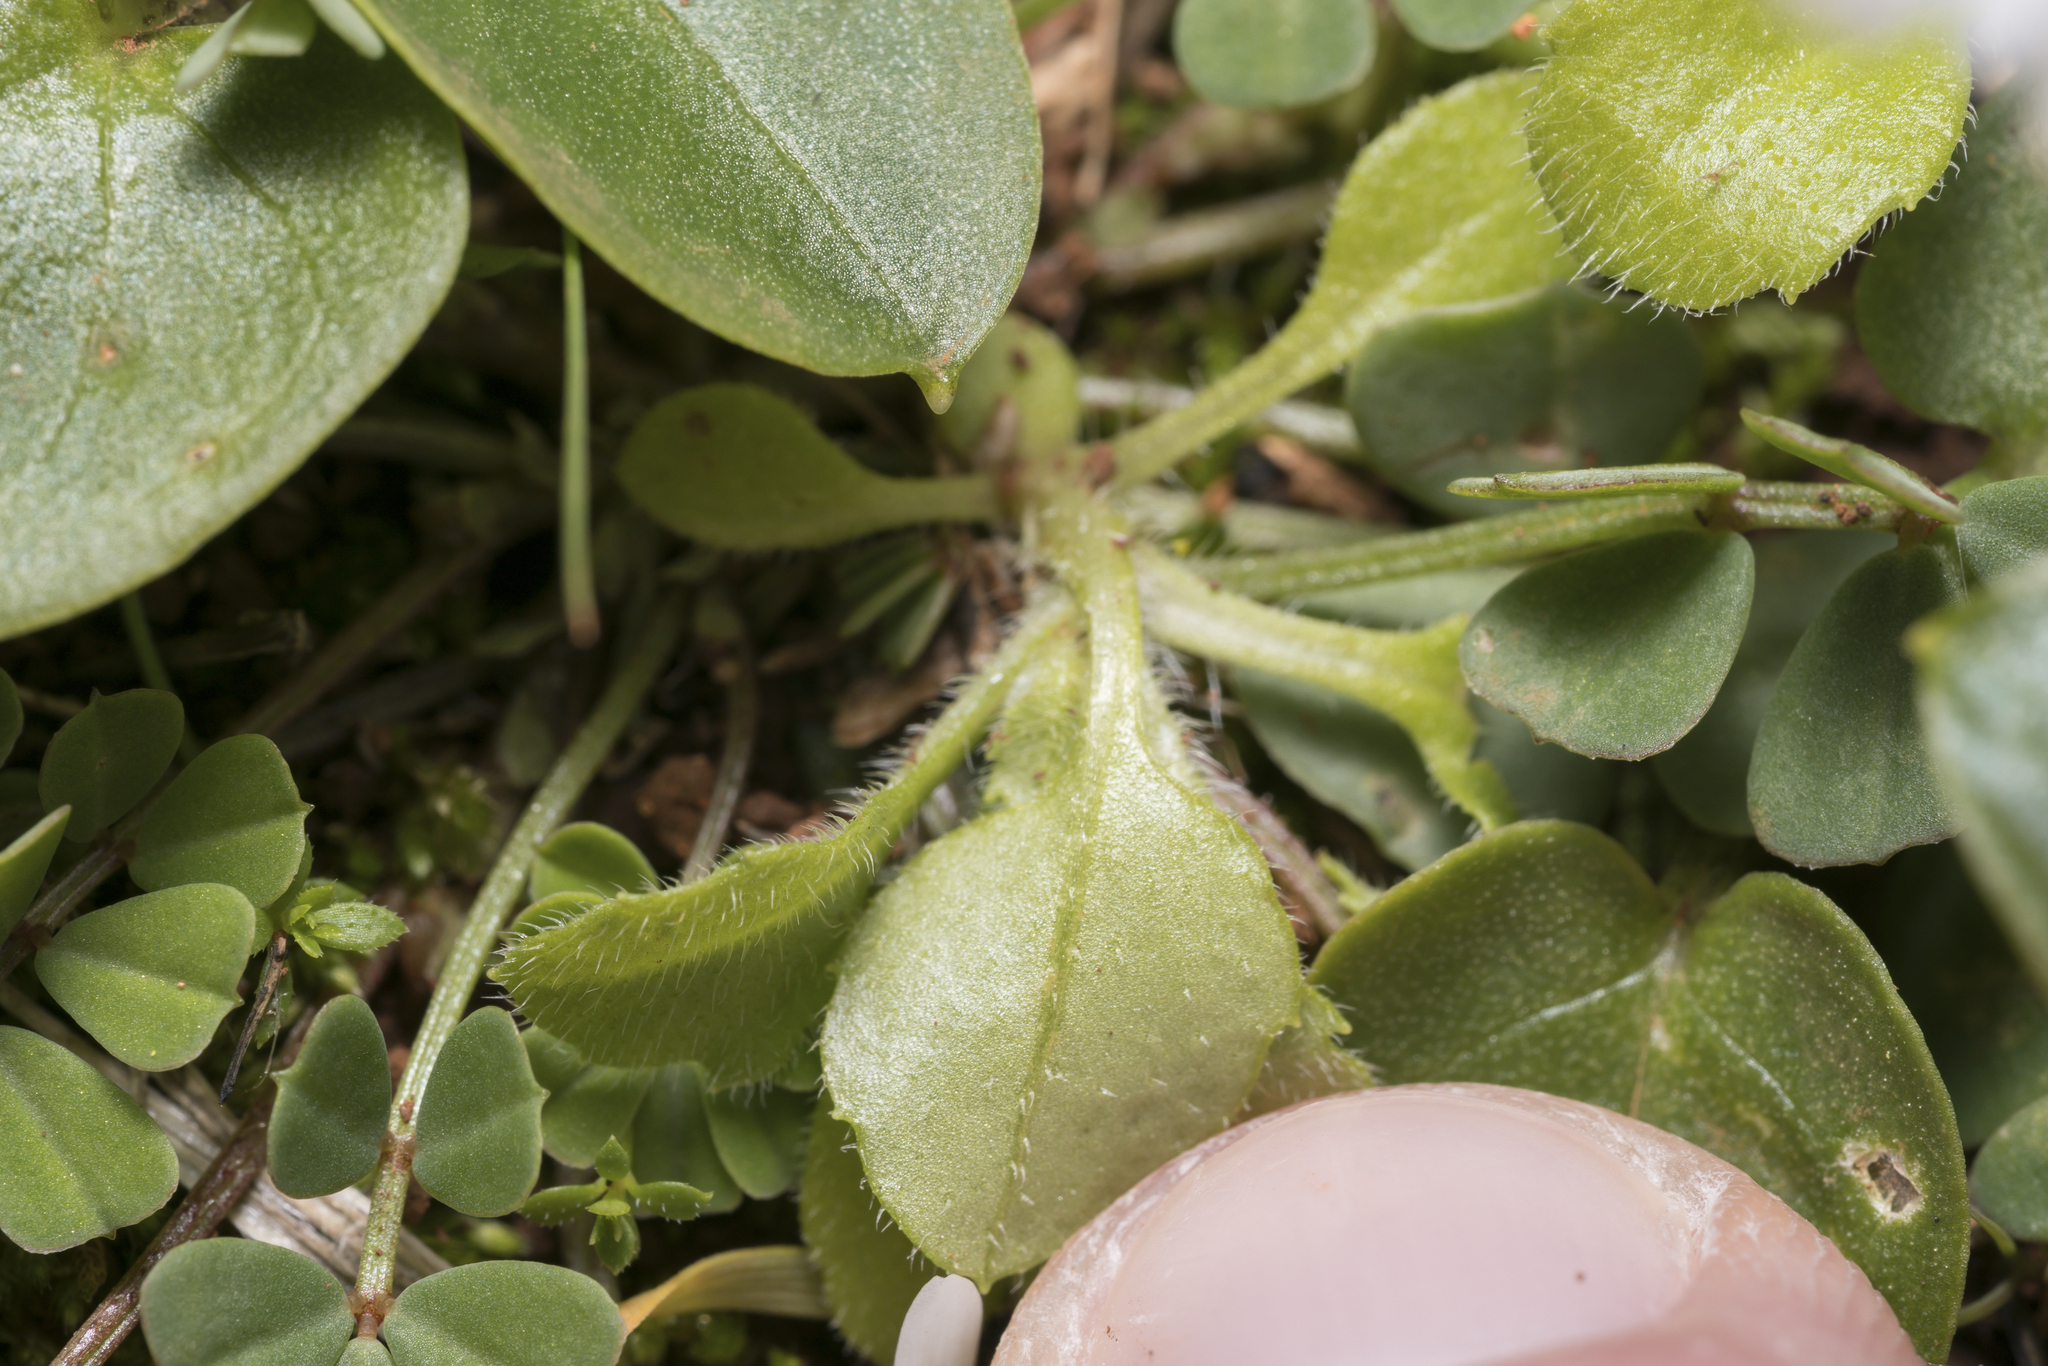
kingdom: Plantae
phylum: Tracheophyta
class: Magnoliopsida
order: Asterales
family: Asteraceae
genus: Bellis
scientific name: Bellis annua
